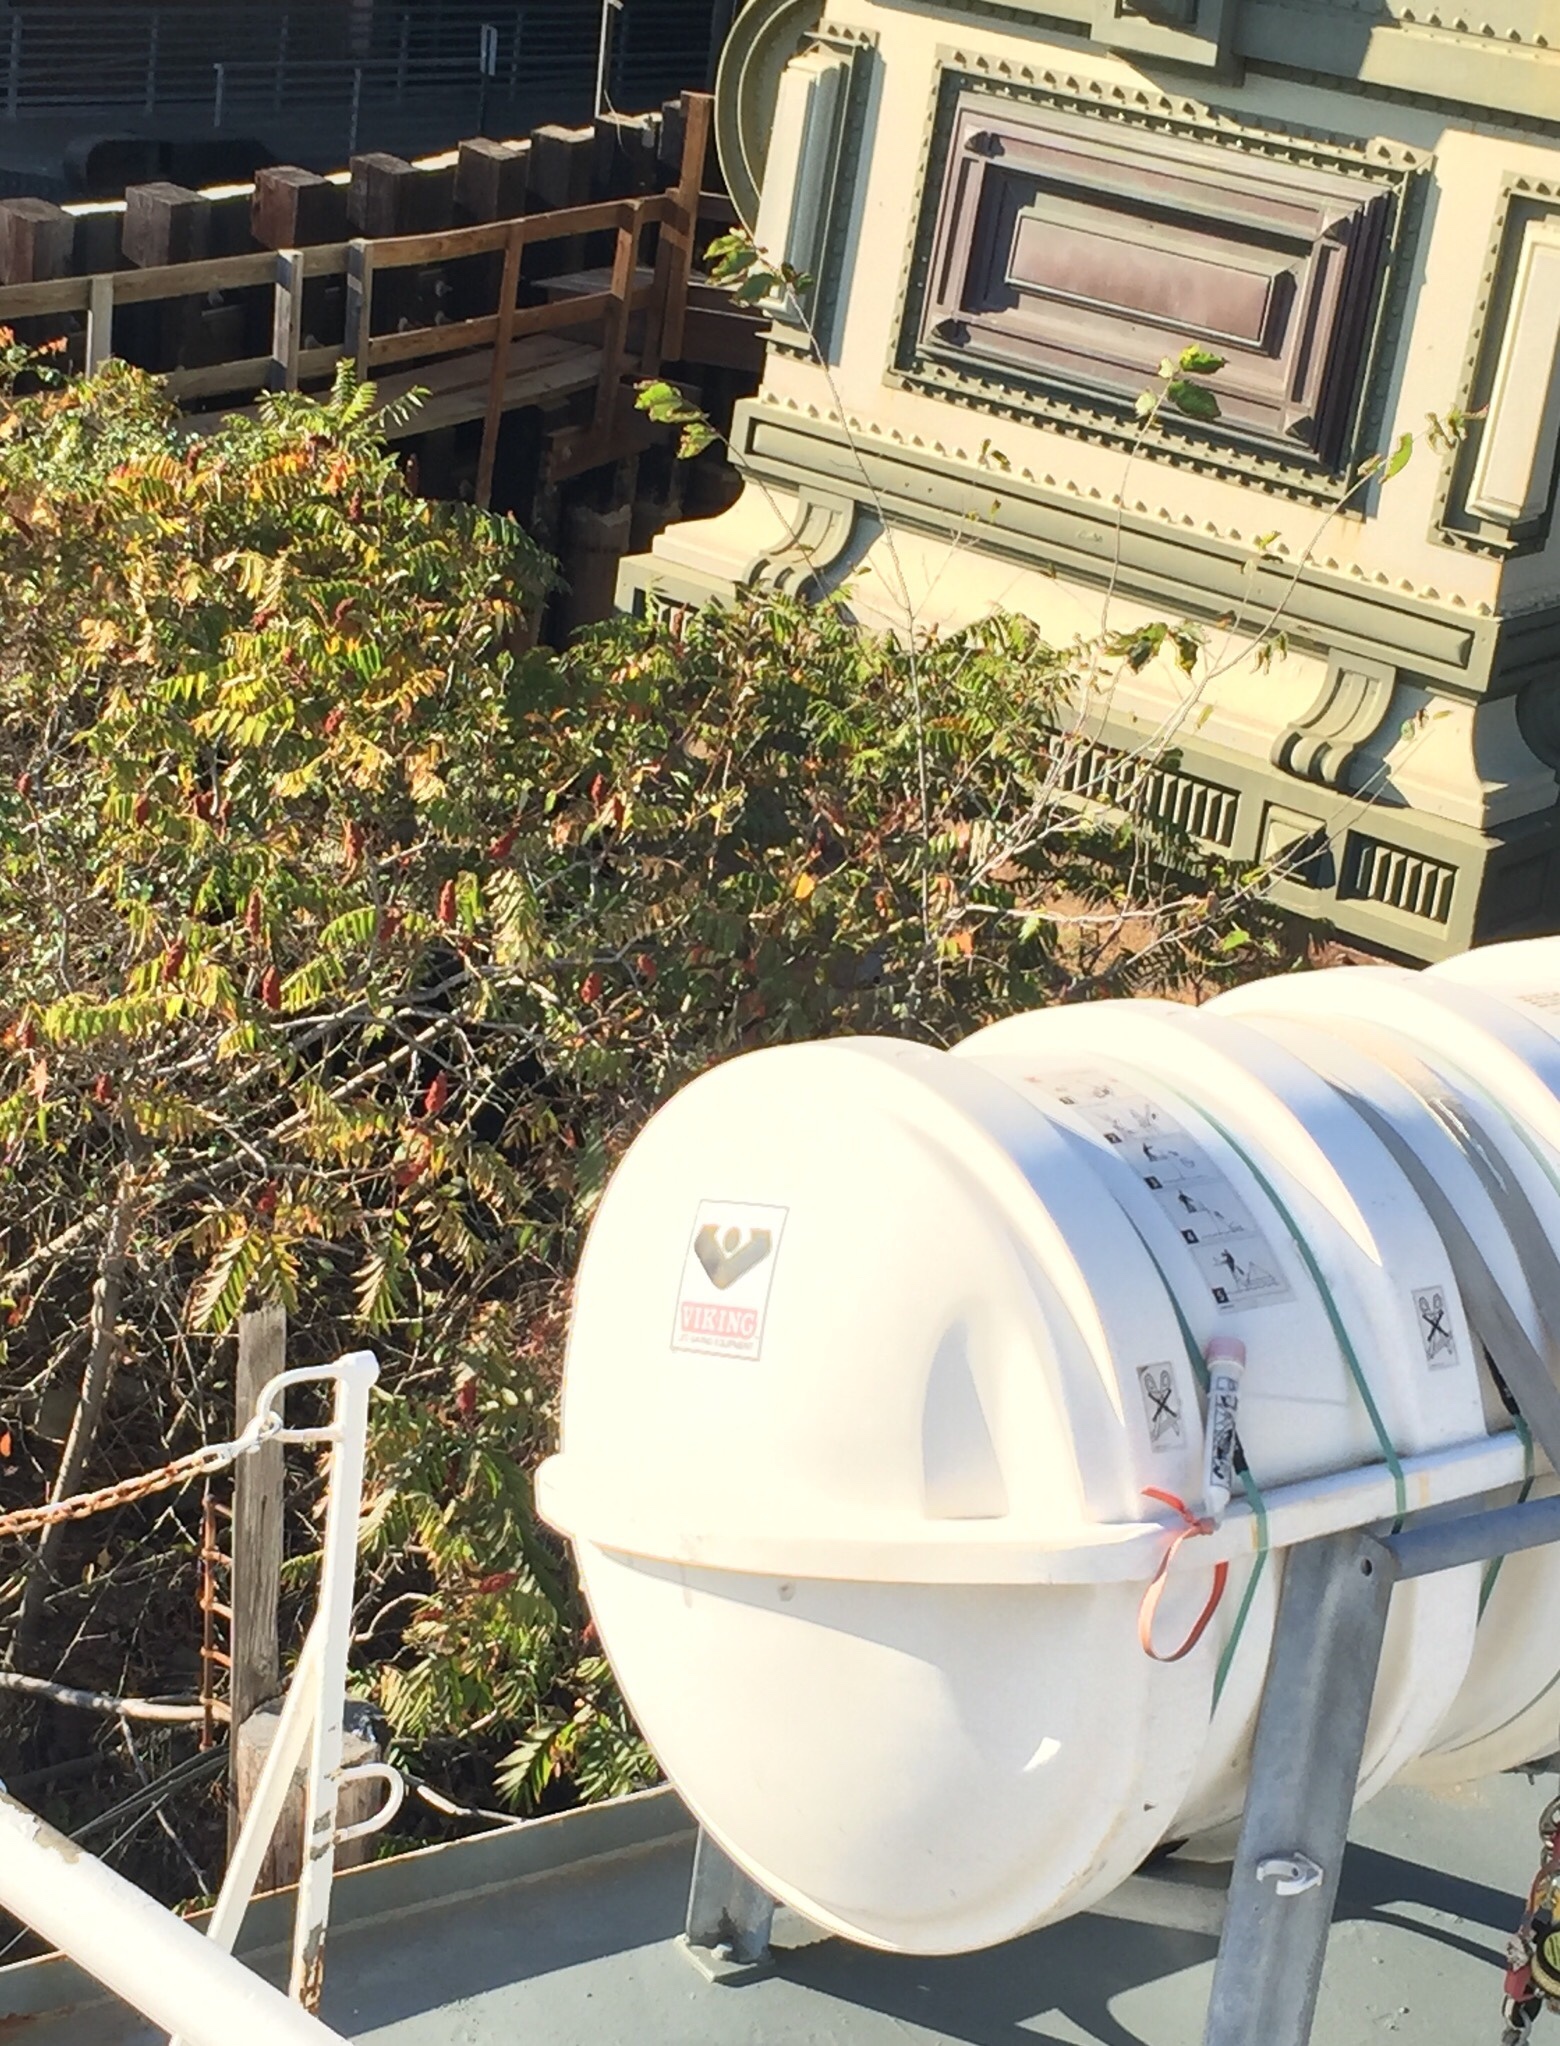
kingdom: Plantae
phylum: Tracheophyta
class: Magnoliopsida
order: Sapindales
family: Anacardiaceae
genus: Rhus
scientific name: Rhus
